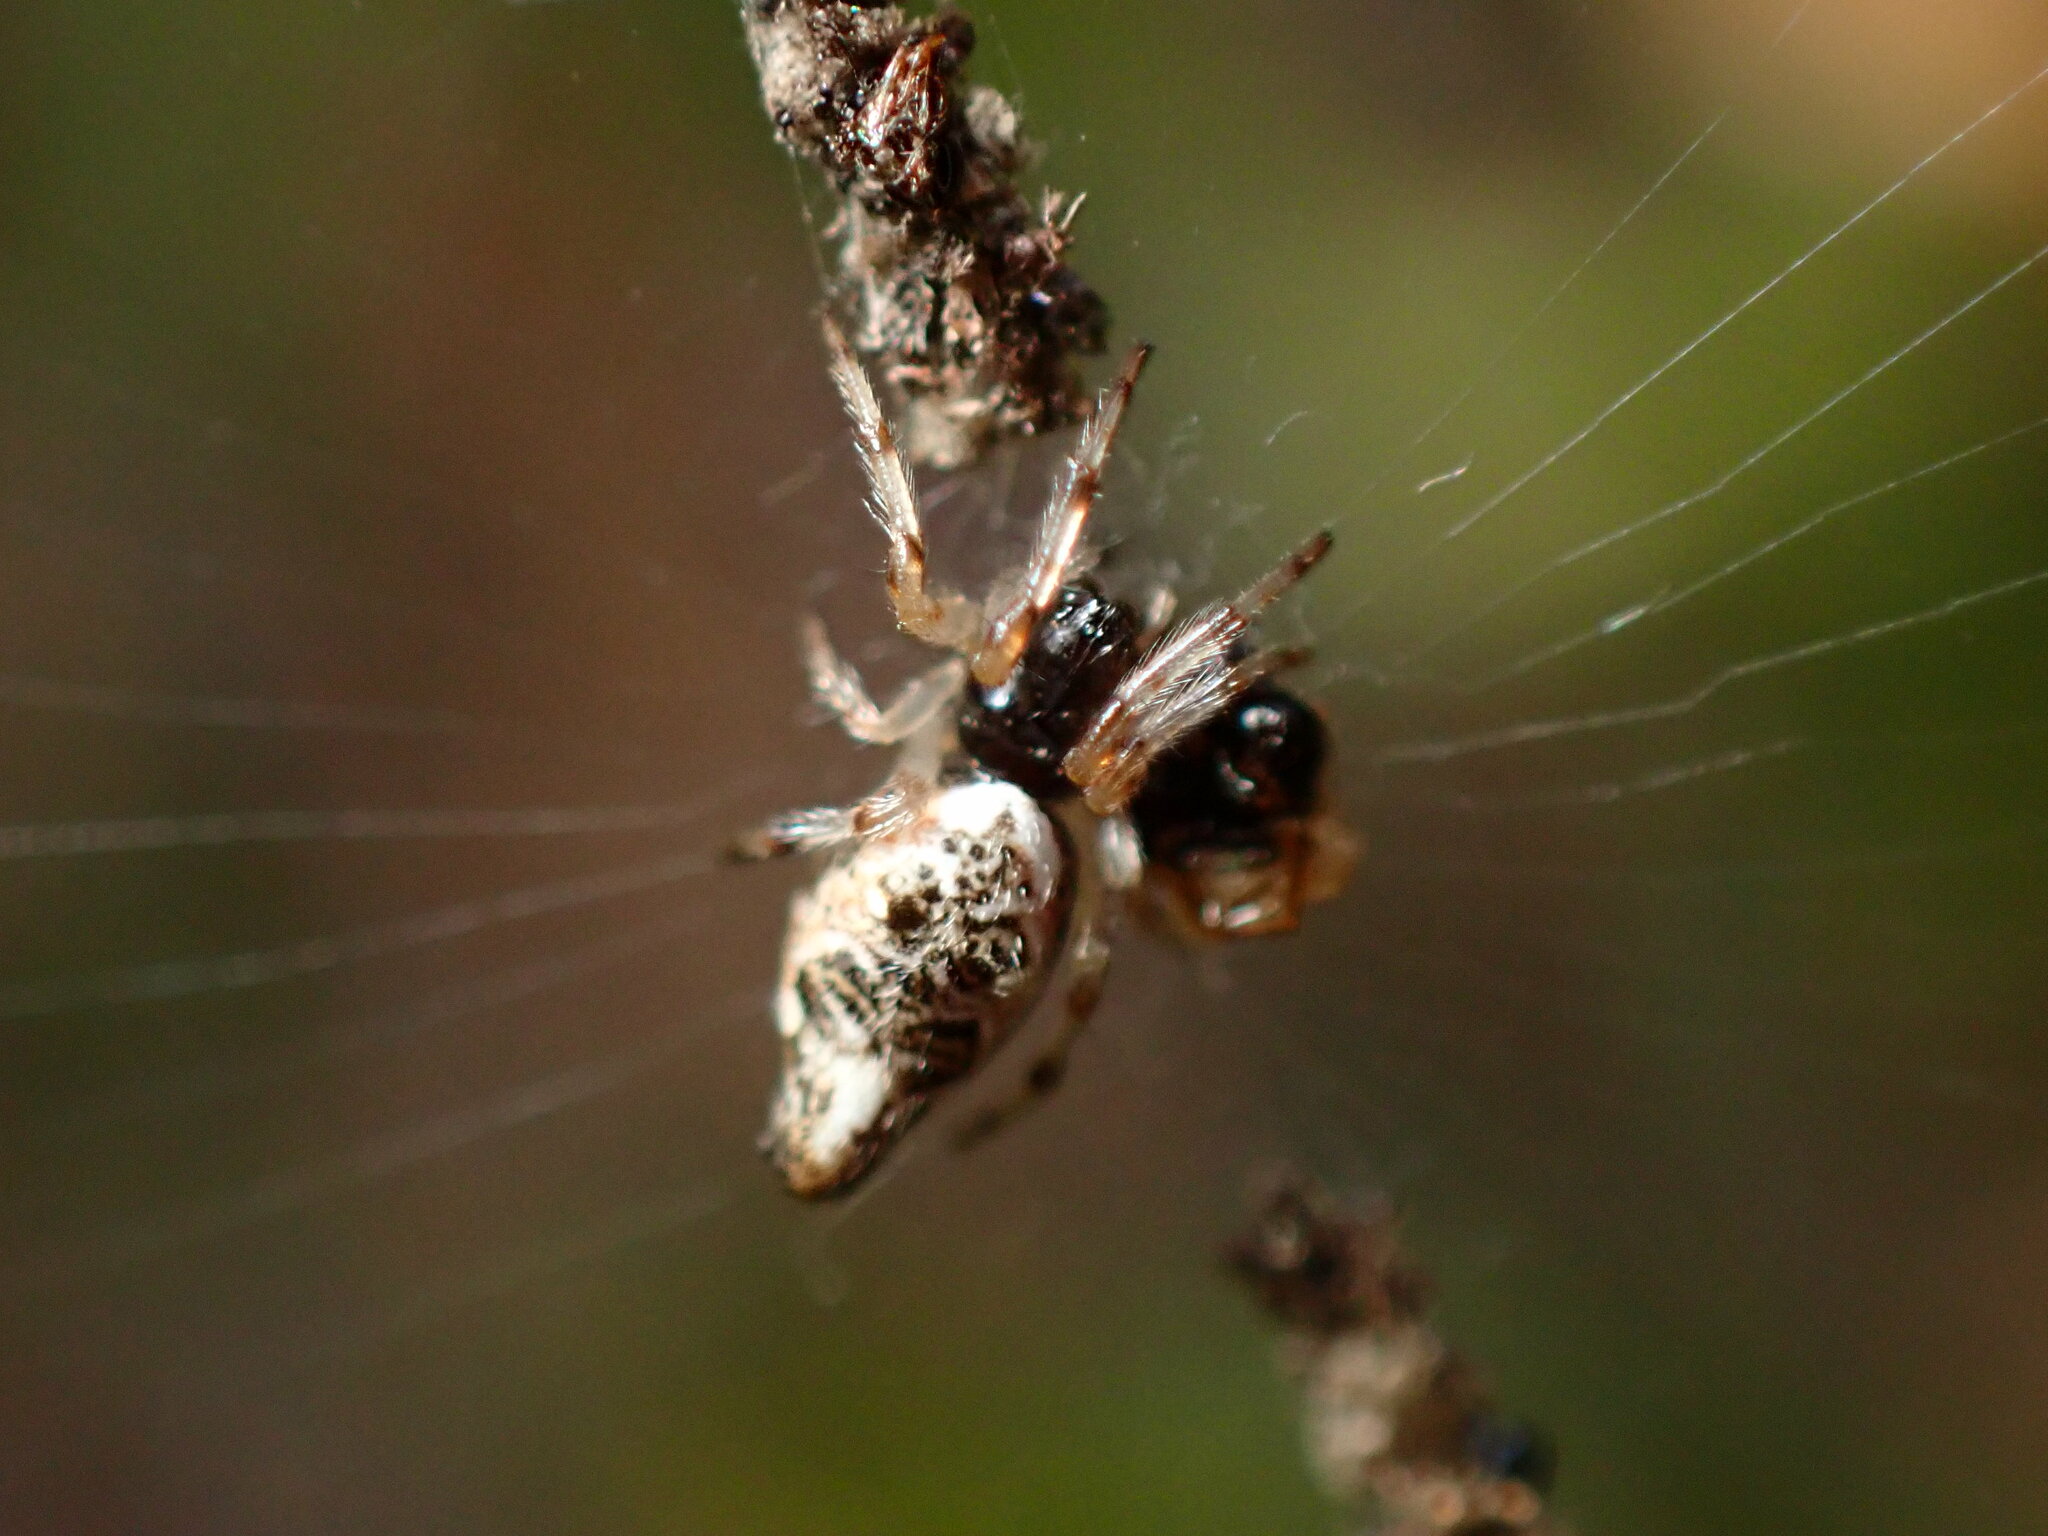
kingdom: Animalia
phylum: Arthropoda
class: Arachnida
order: Araneae
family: Araneidae
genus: Cyclosa
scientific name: Cyclosa turbinata
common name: Orb weavers
